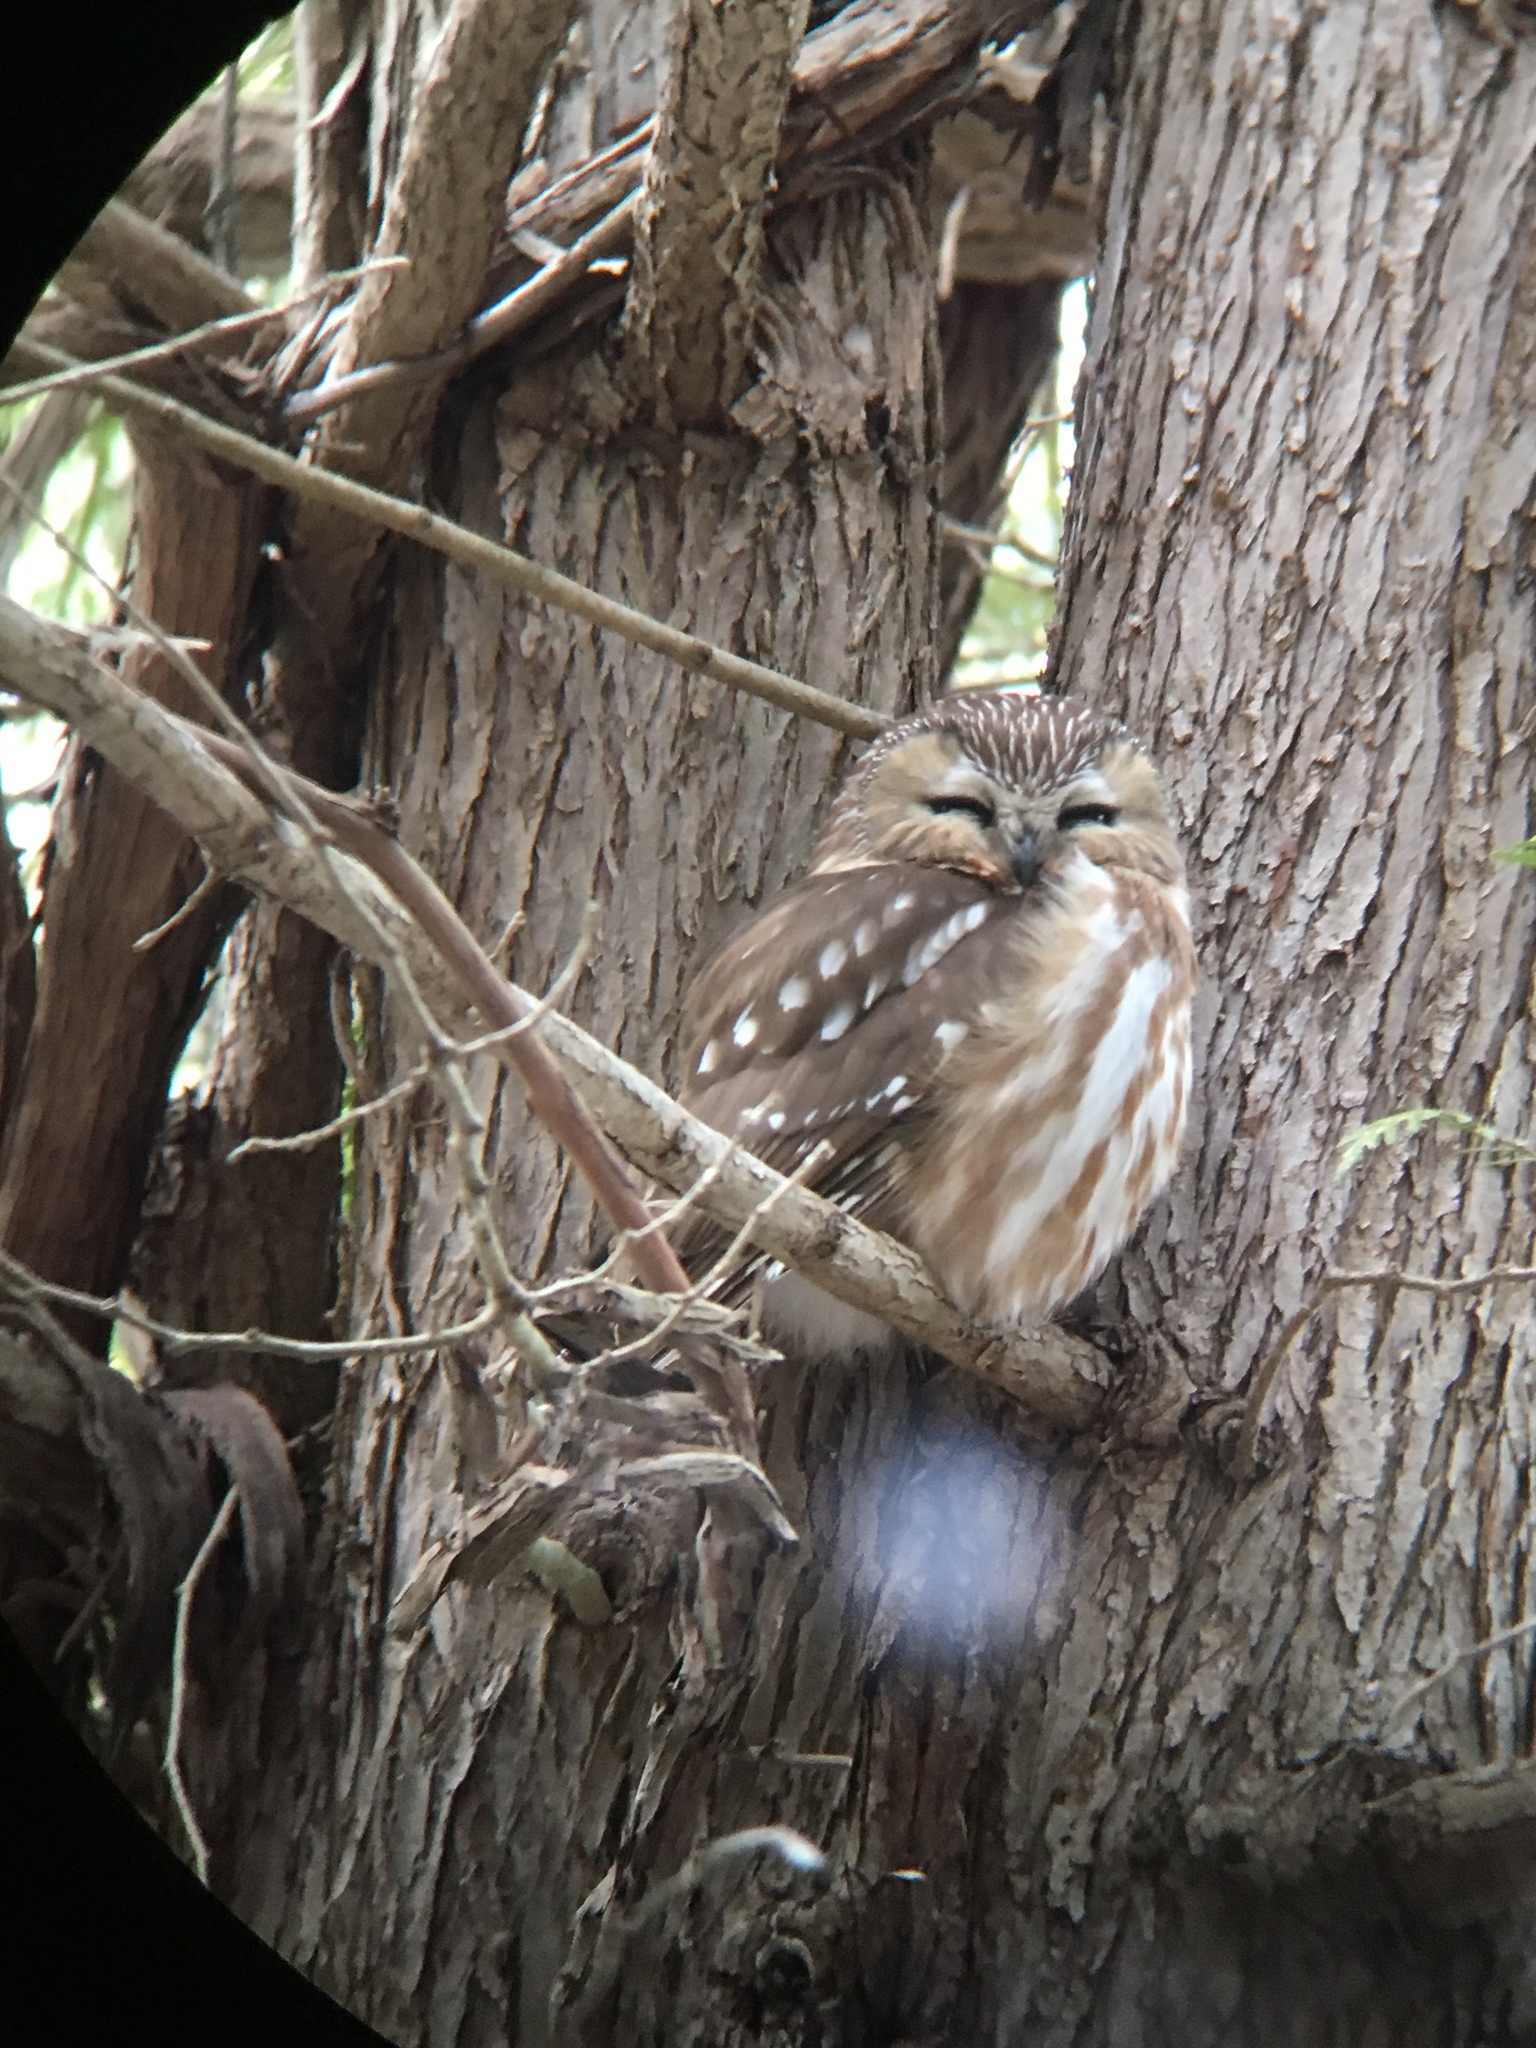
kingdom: Animalia
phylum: Chordata
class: Aves
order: Strigiformes
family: Strigidae
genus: Aegolius
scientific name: Aegolius acadicus
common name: Northern saw-whet owl
